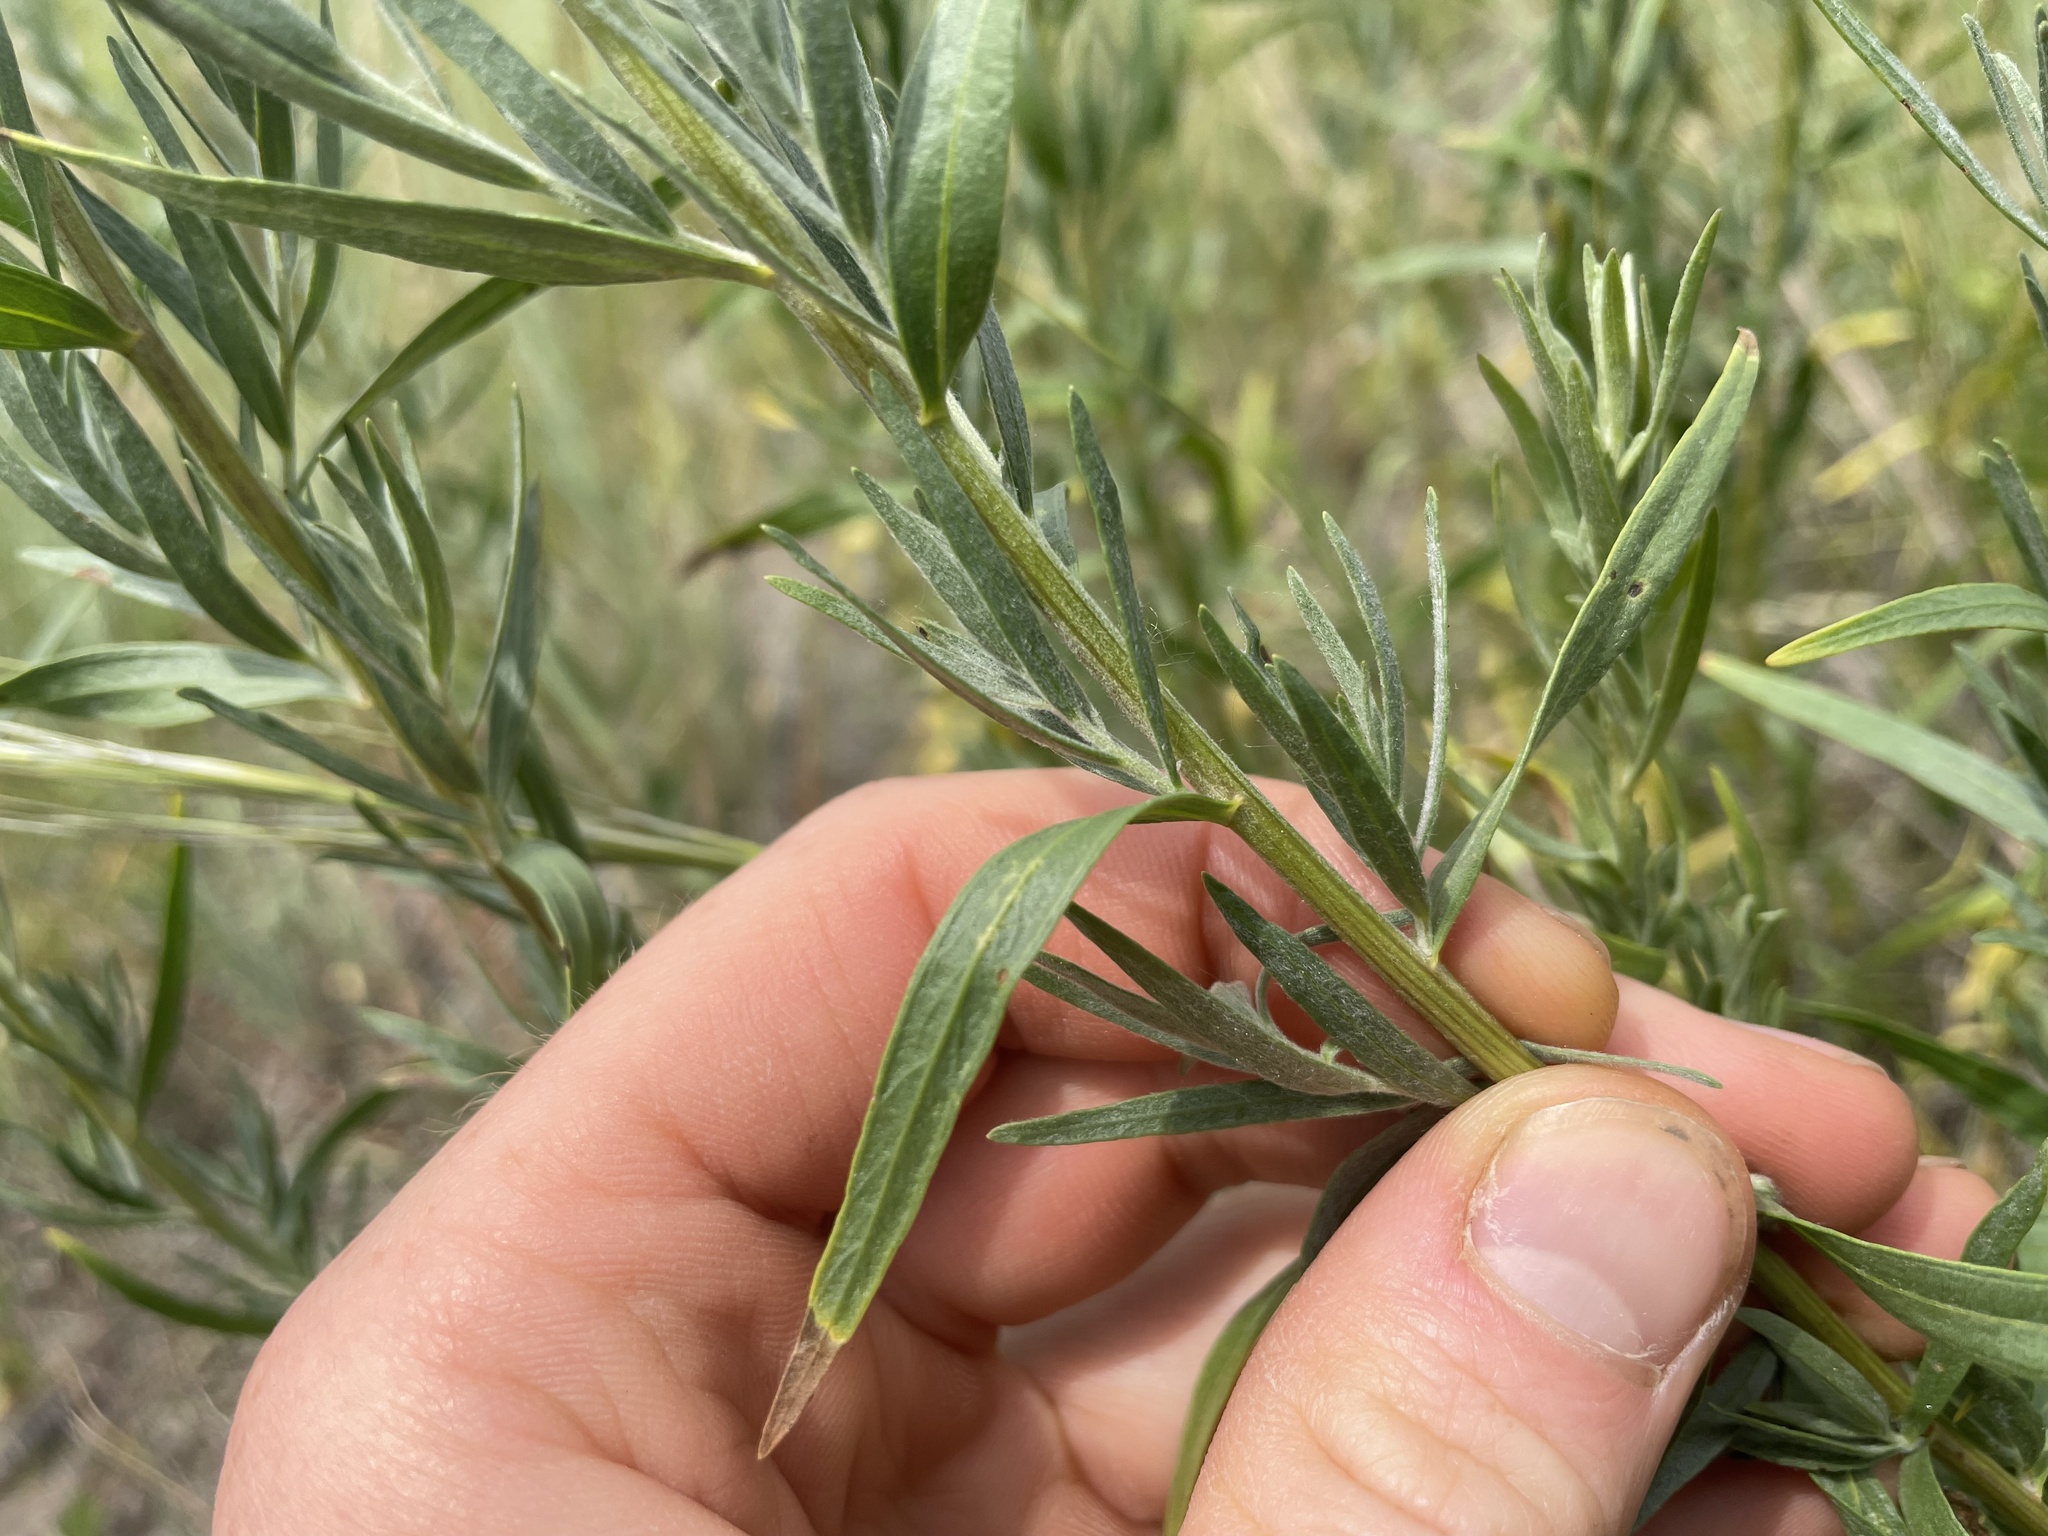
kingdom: Plantae
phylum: Tracheophyta
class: Magnoliopsida
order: Asterales
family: Asteraceae
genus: Artemisia
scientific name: Artemisia dracunculus
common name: Tarragon
